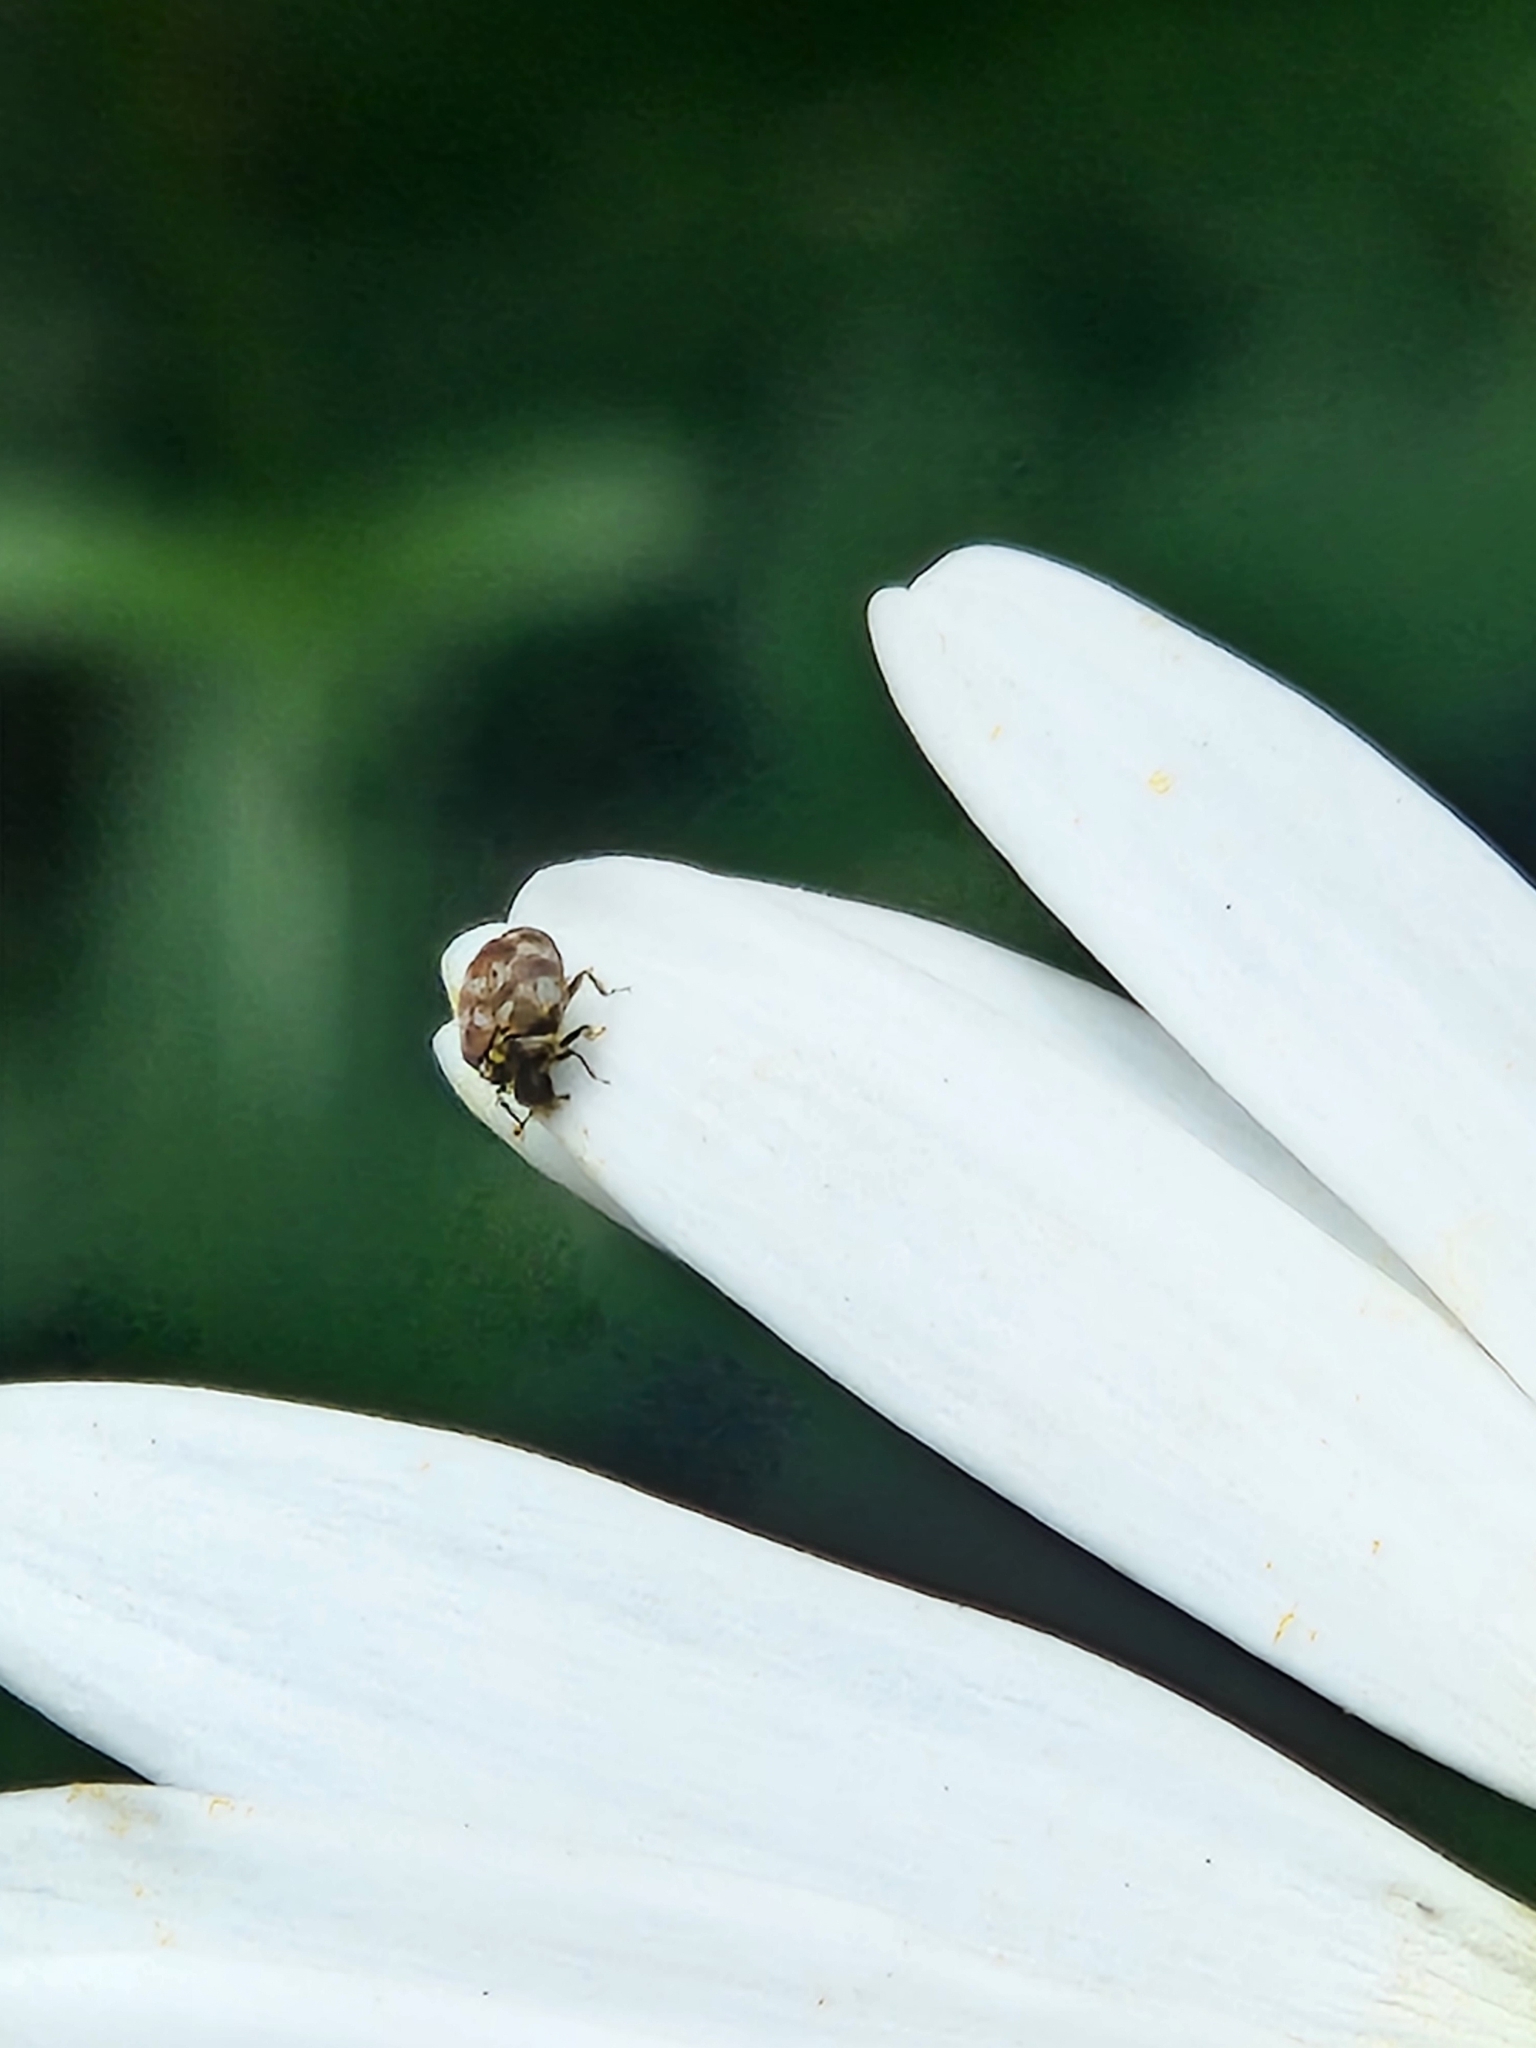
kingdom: Animalia
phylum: Arthropoda
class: Insecta
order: Coleoptera
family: Dermestidae
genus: Anthrenus
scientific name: Anthrenus verbasci
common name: Varied carpet beetle
